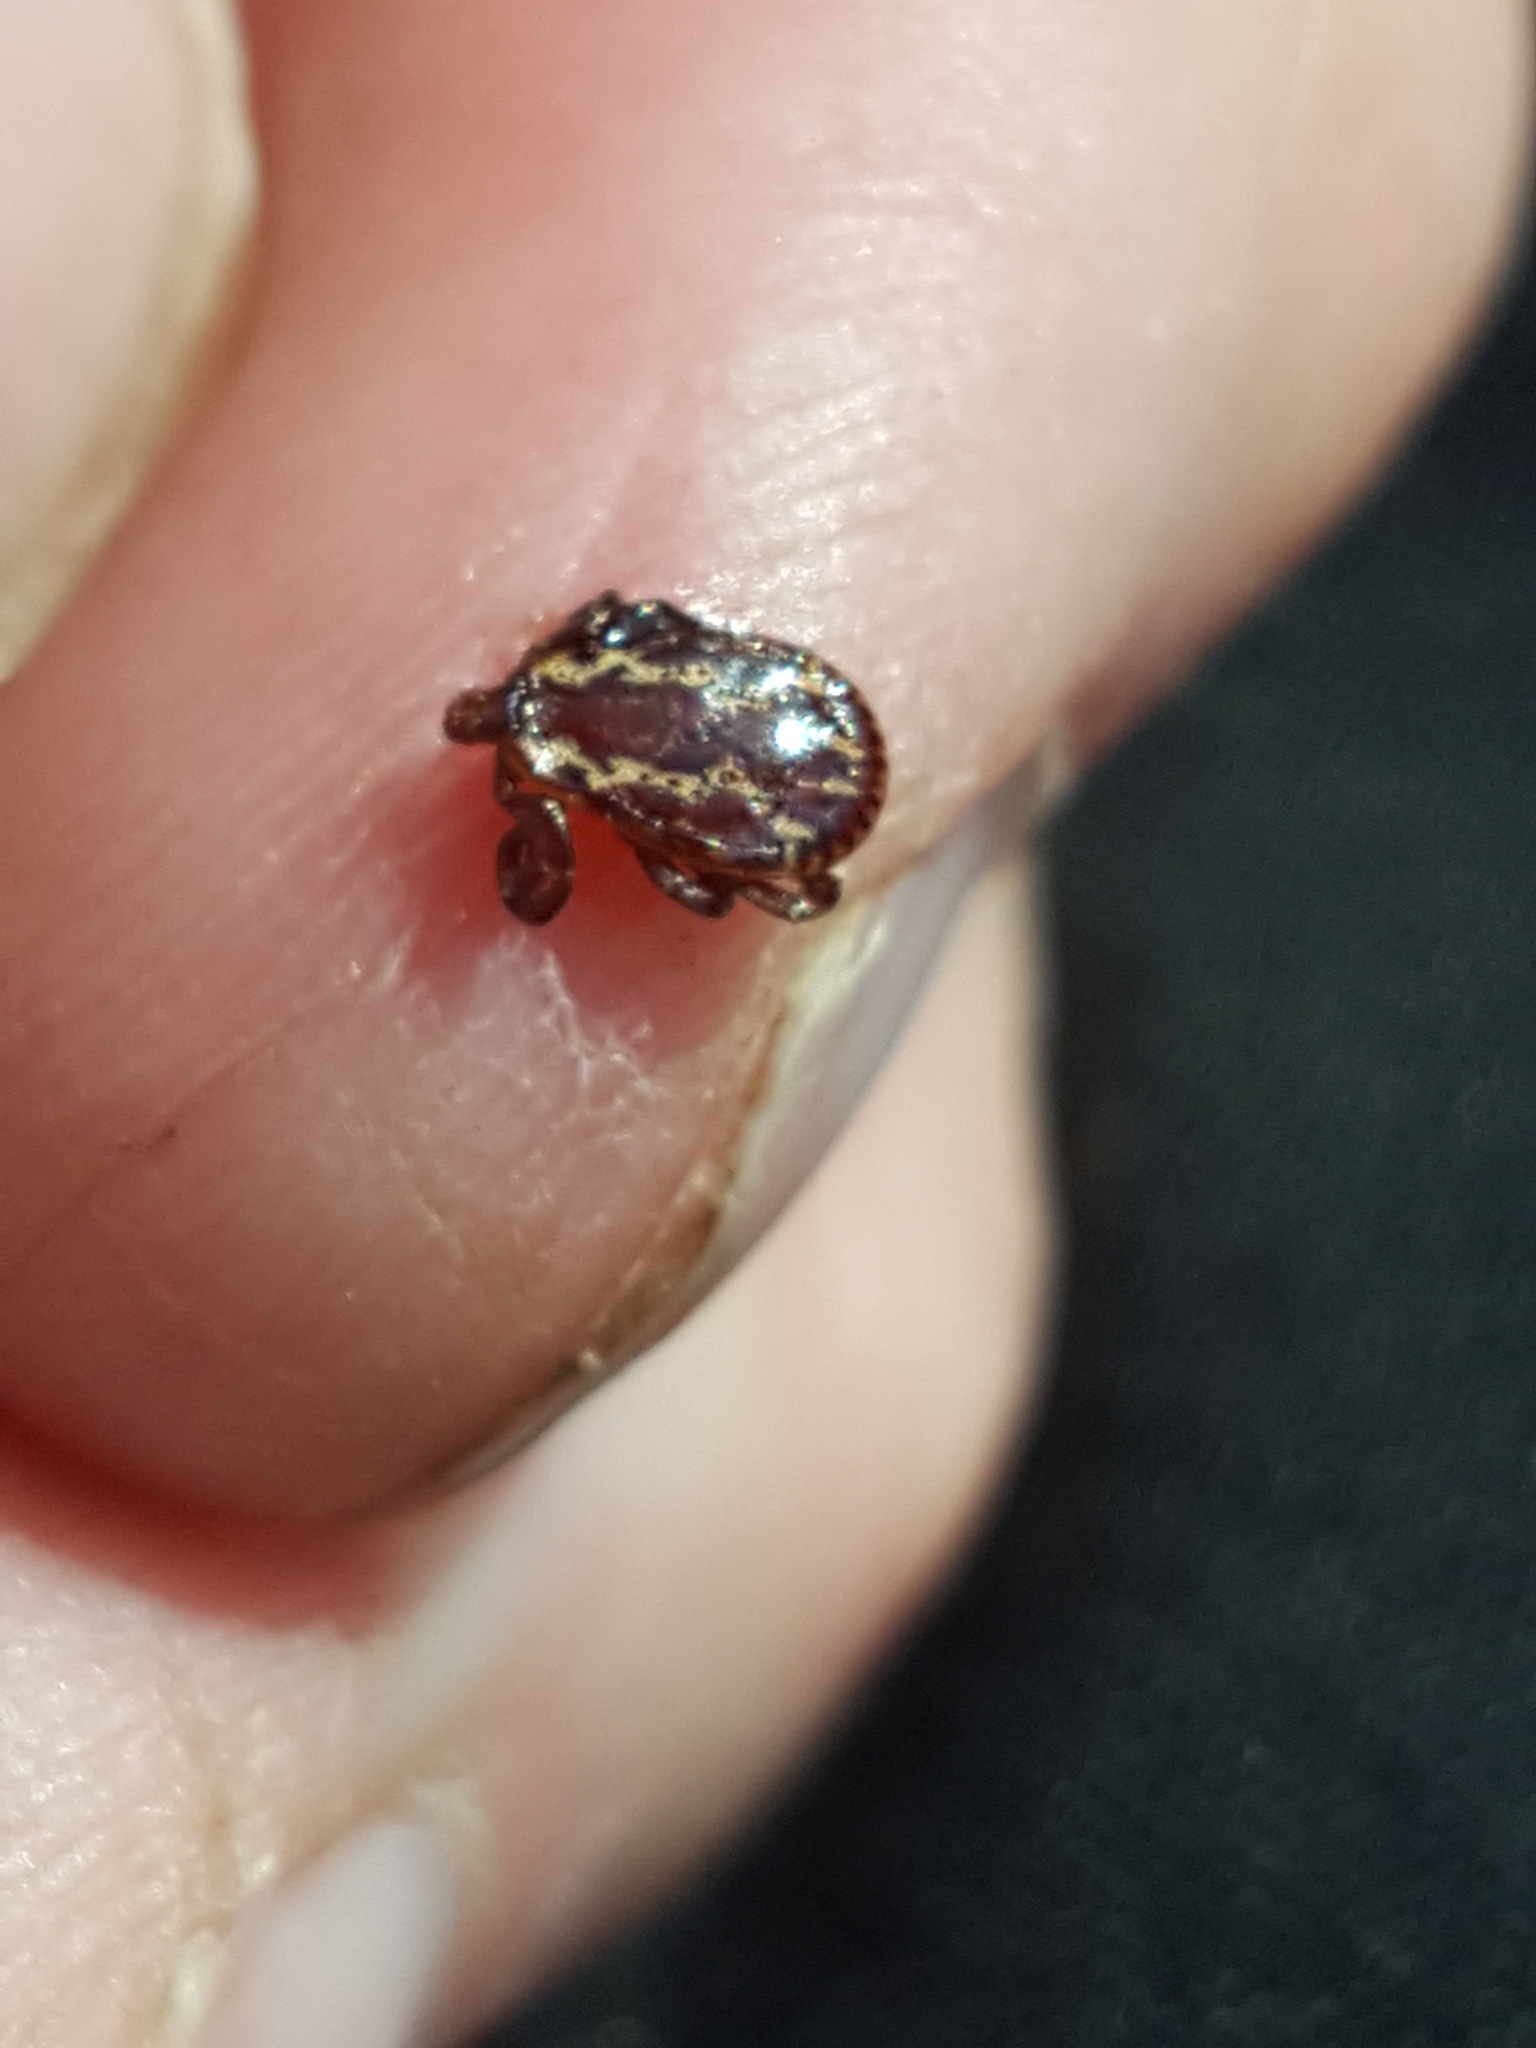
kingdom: Animalia
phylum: Arthropoda
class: Arachnida
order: Ixodida
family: Ixodidae
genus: Dermacentor
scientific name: Dermacentor variabilis
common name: American dog tick
